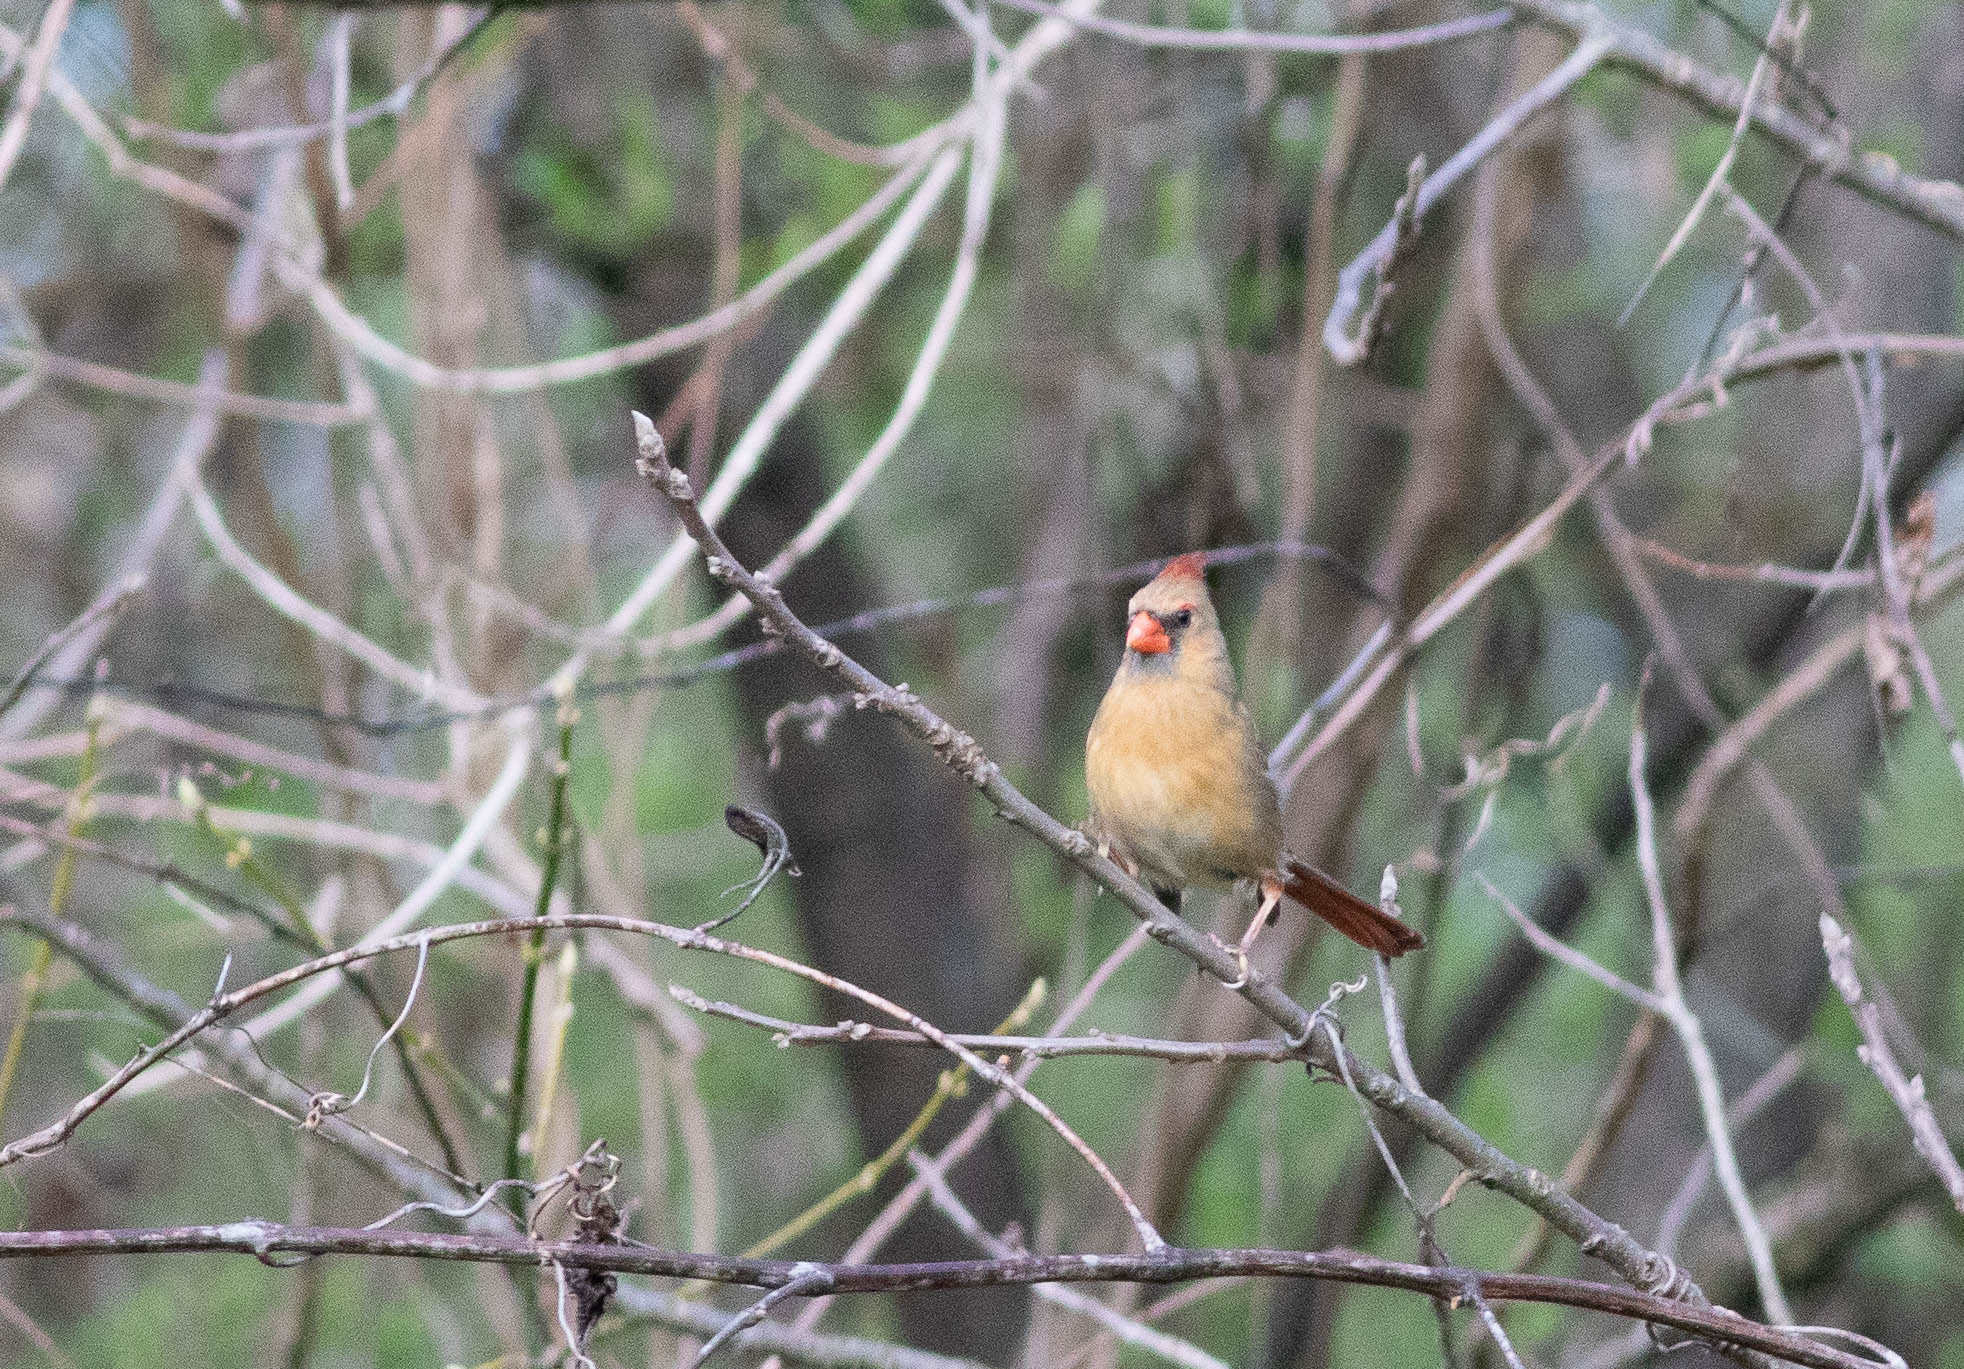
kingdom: Animalia
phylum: Chordata
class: Aves
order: Passeriformes
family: Cardinalidae
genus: Cardinalis
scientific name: Cardinalis cardinalis
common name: Northern cardinal
